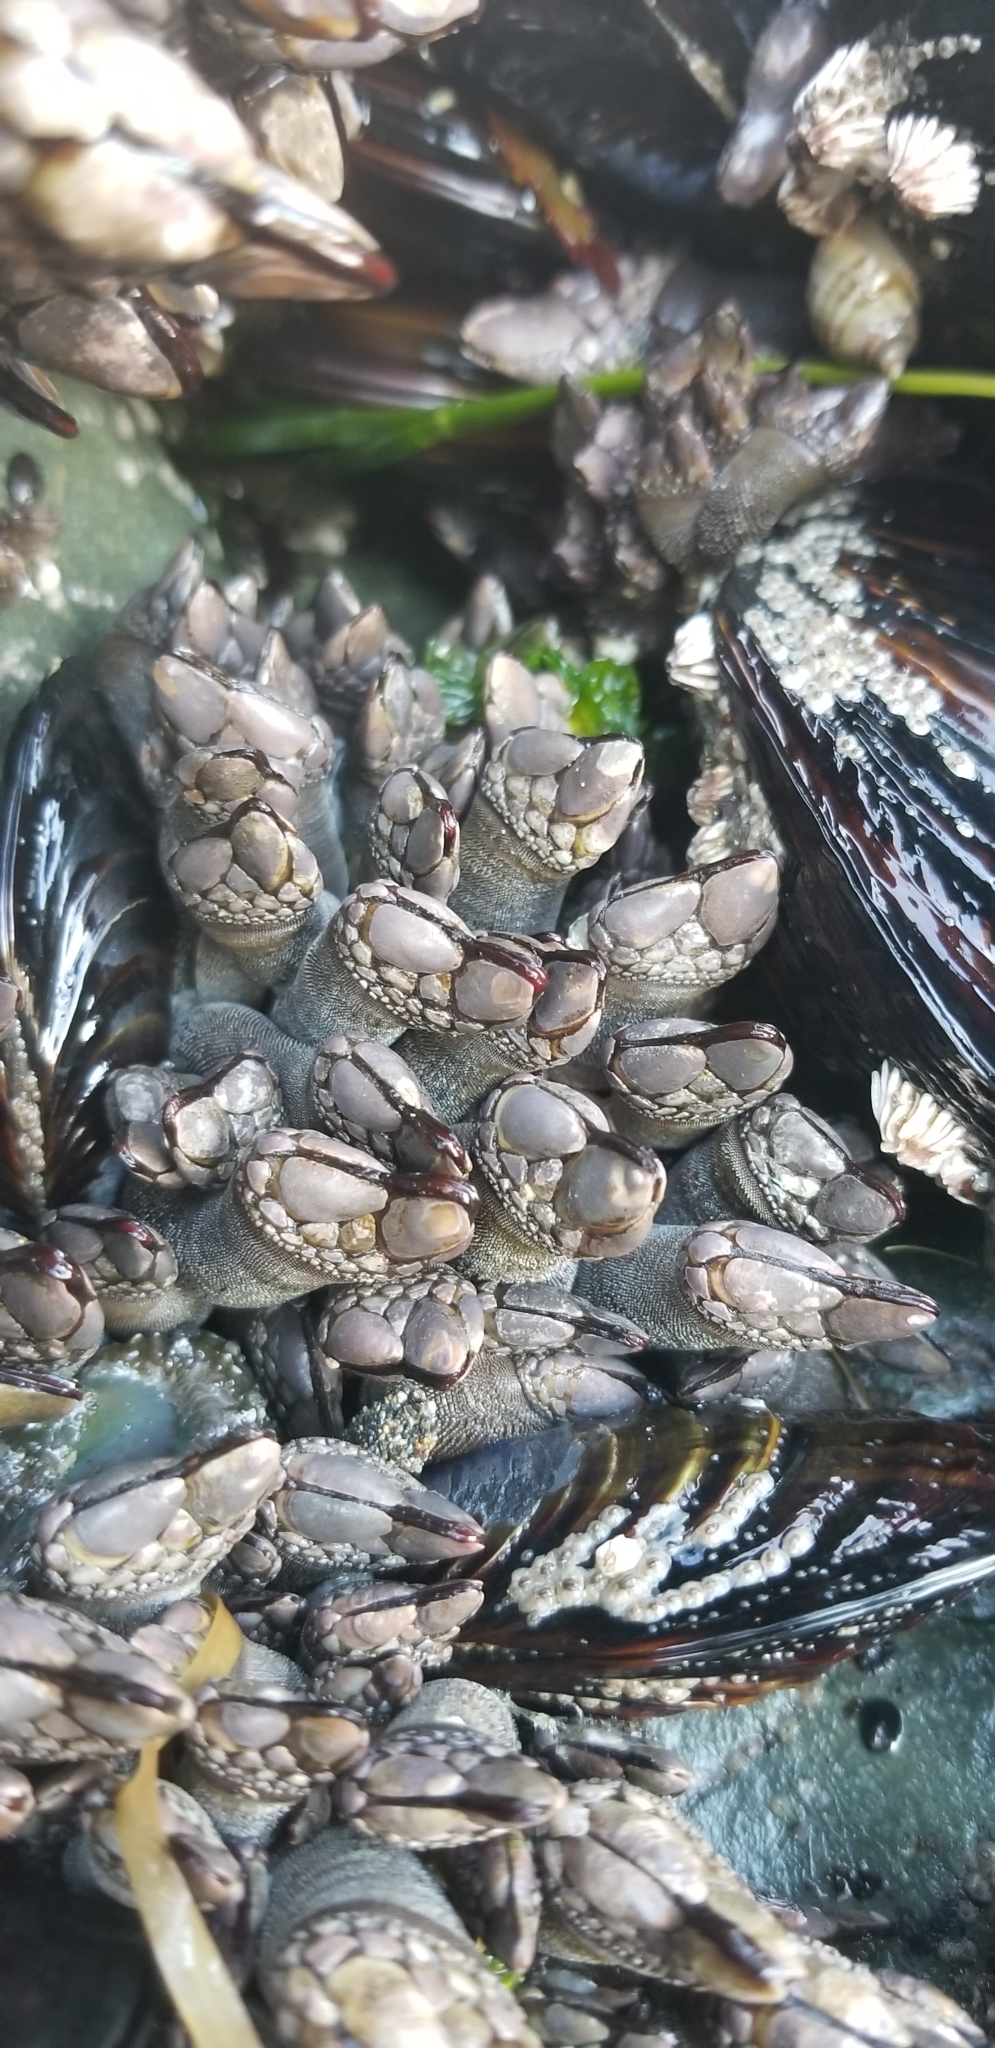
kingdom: Animalia
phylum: Arthropoda
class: Maxillopoda
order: Pedunculata
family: Pollicipedidae
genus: Pollicipes
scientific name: Pollicipes polymerus
